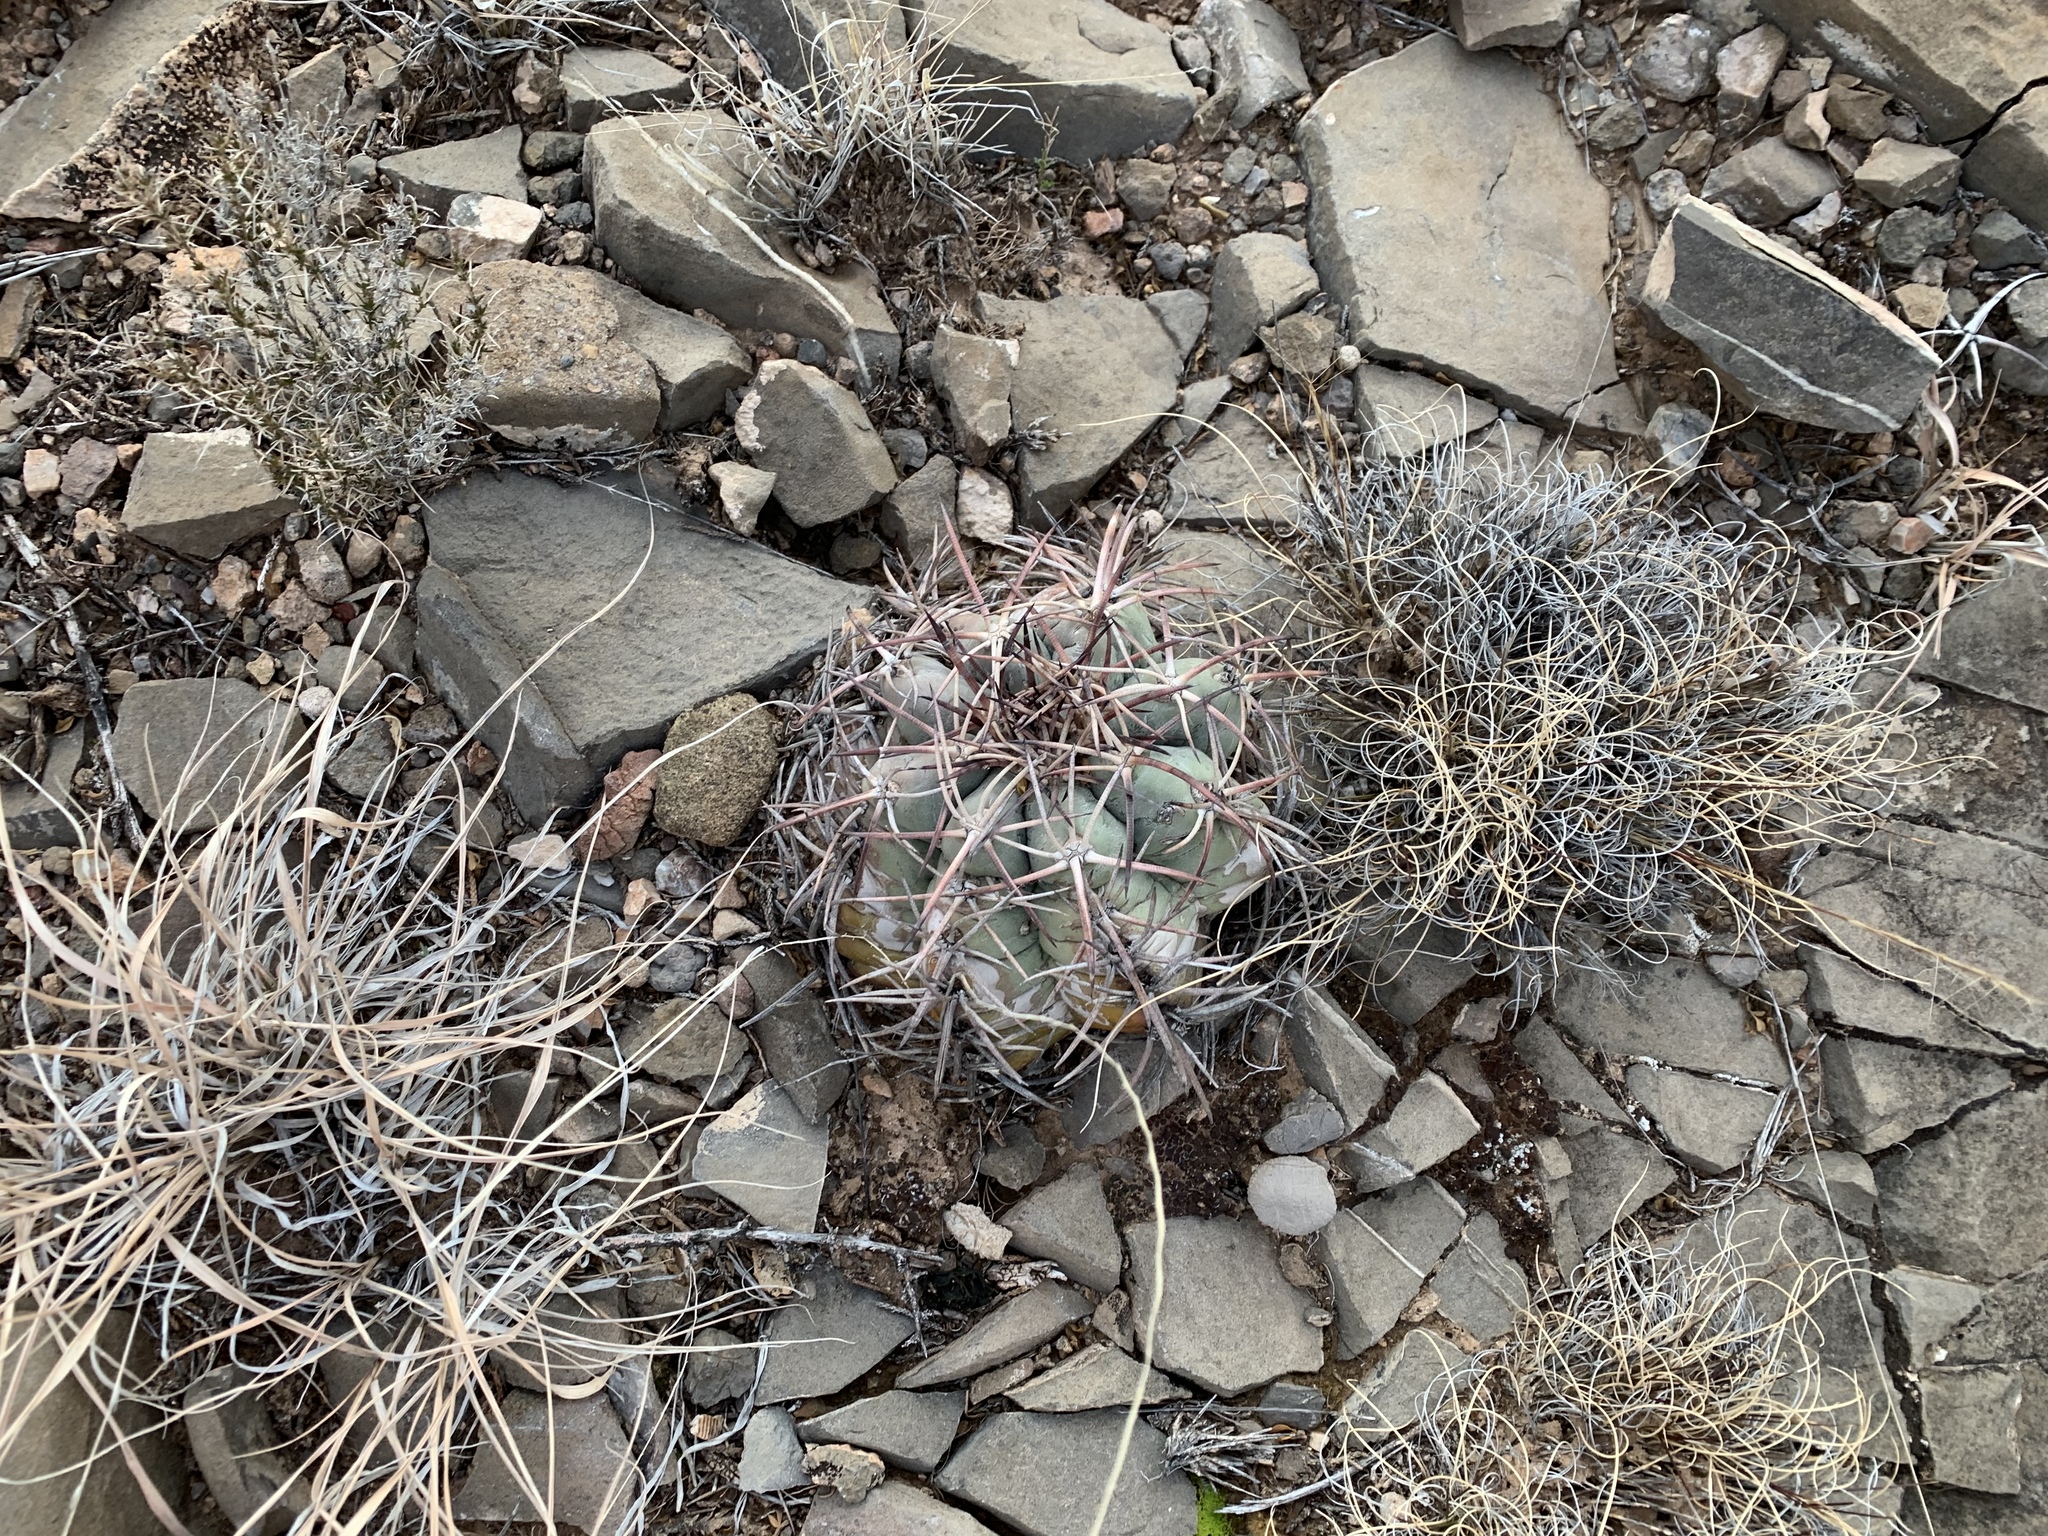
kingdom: Plantae
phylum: Tracheophyta
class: Magnoliopsida
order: Caryophyllales
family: Cactaceae
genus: Echinocactus
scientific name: Echinocactus horizonthalonius
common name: Devilshead
